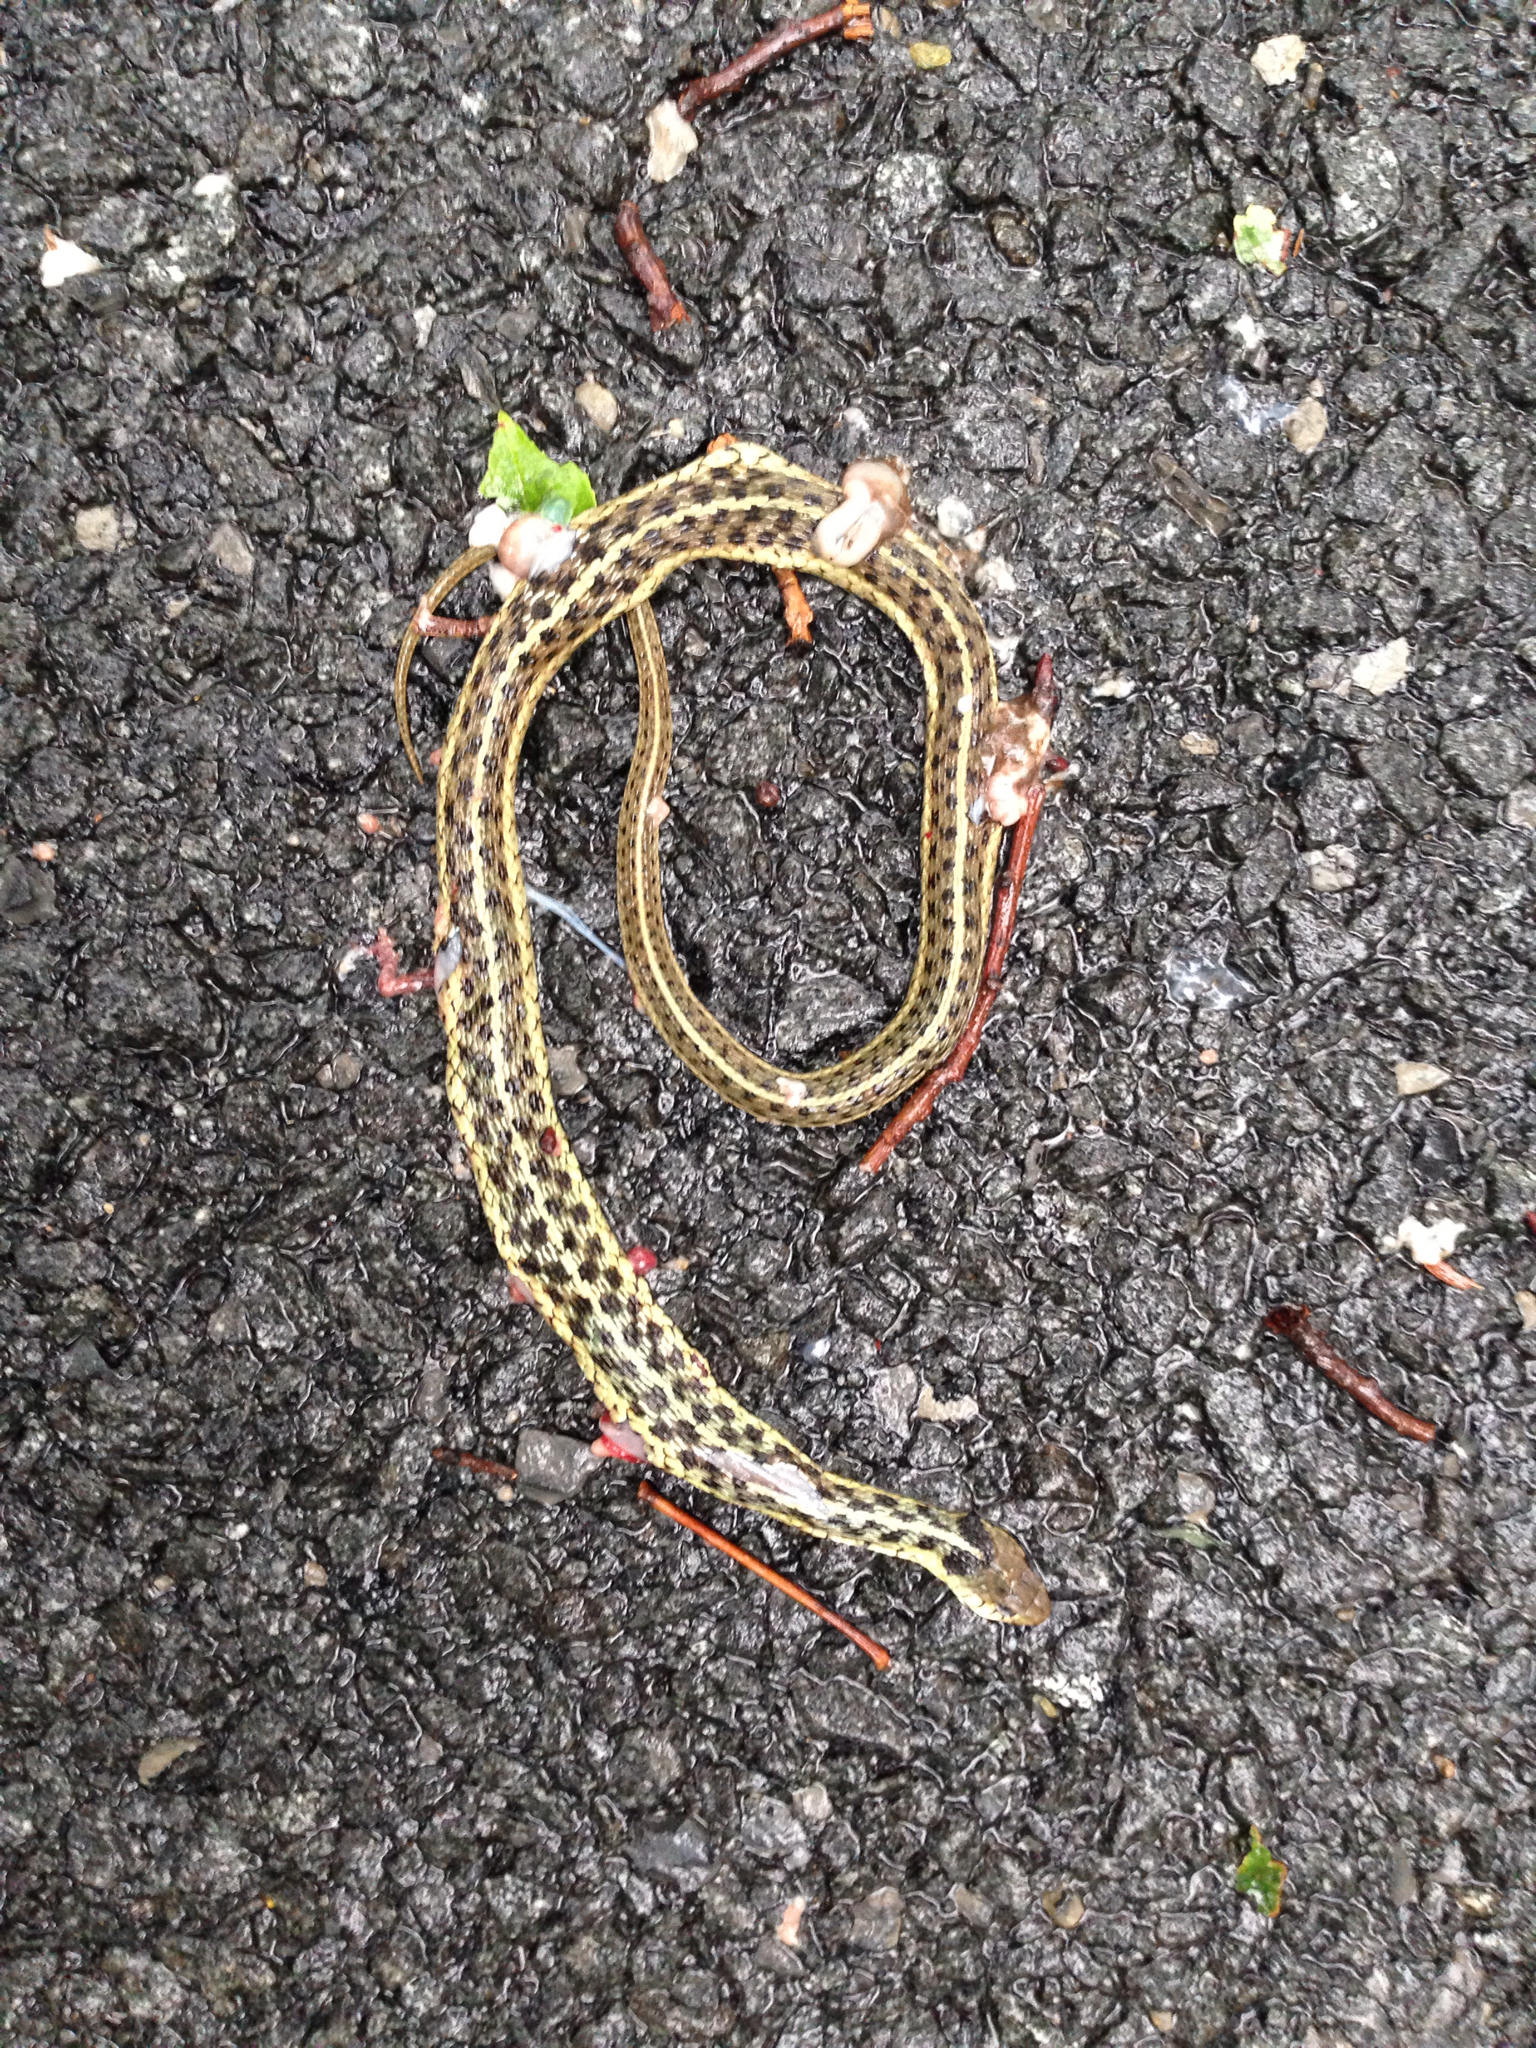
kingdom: Animalia
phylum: Chordata
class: Squamata
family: Colubridae
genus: Thamnophis
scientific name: Thamnophis sirtalis
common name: Common garter snake
